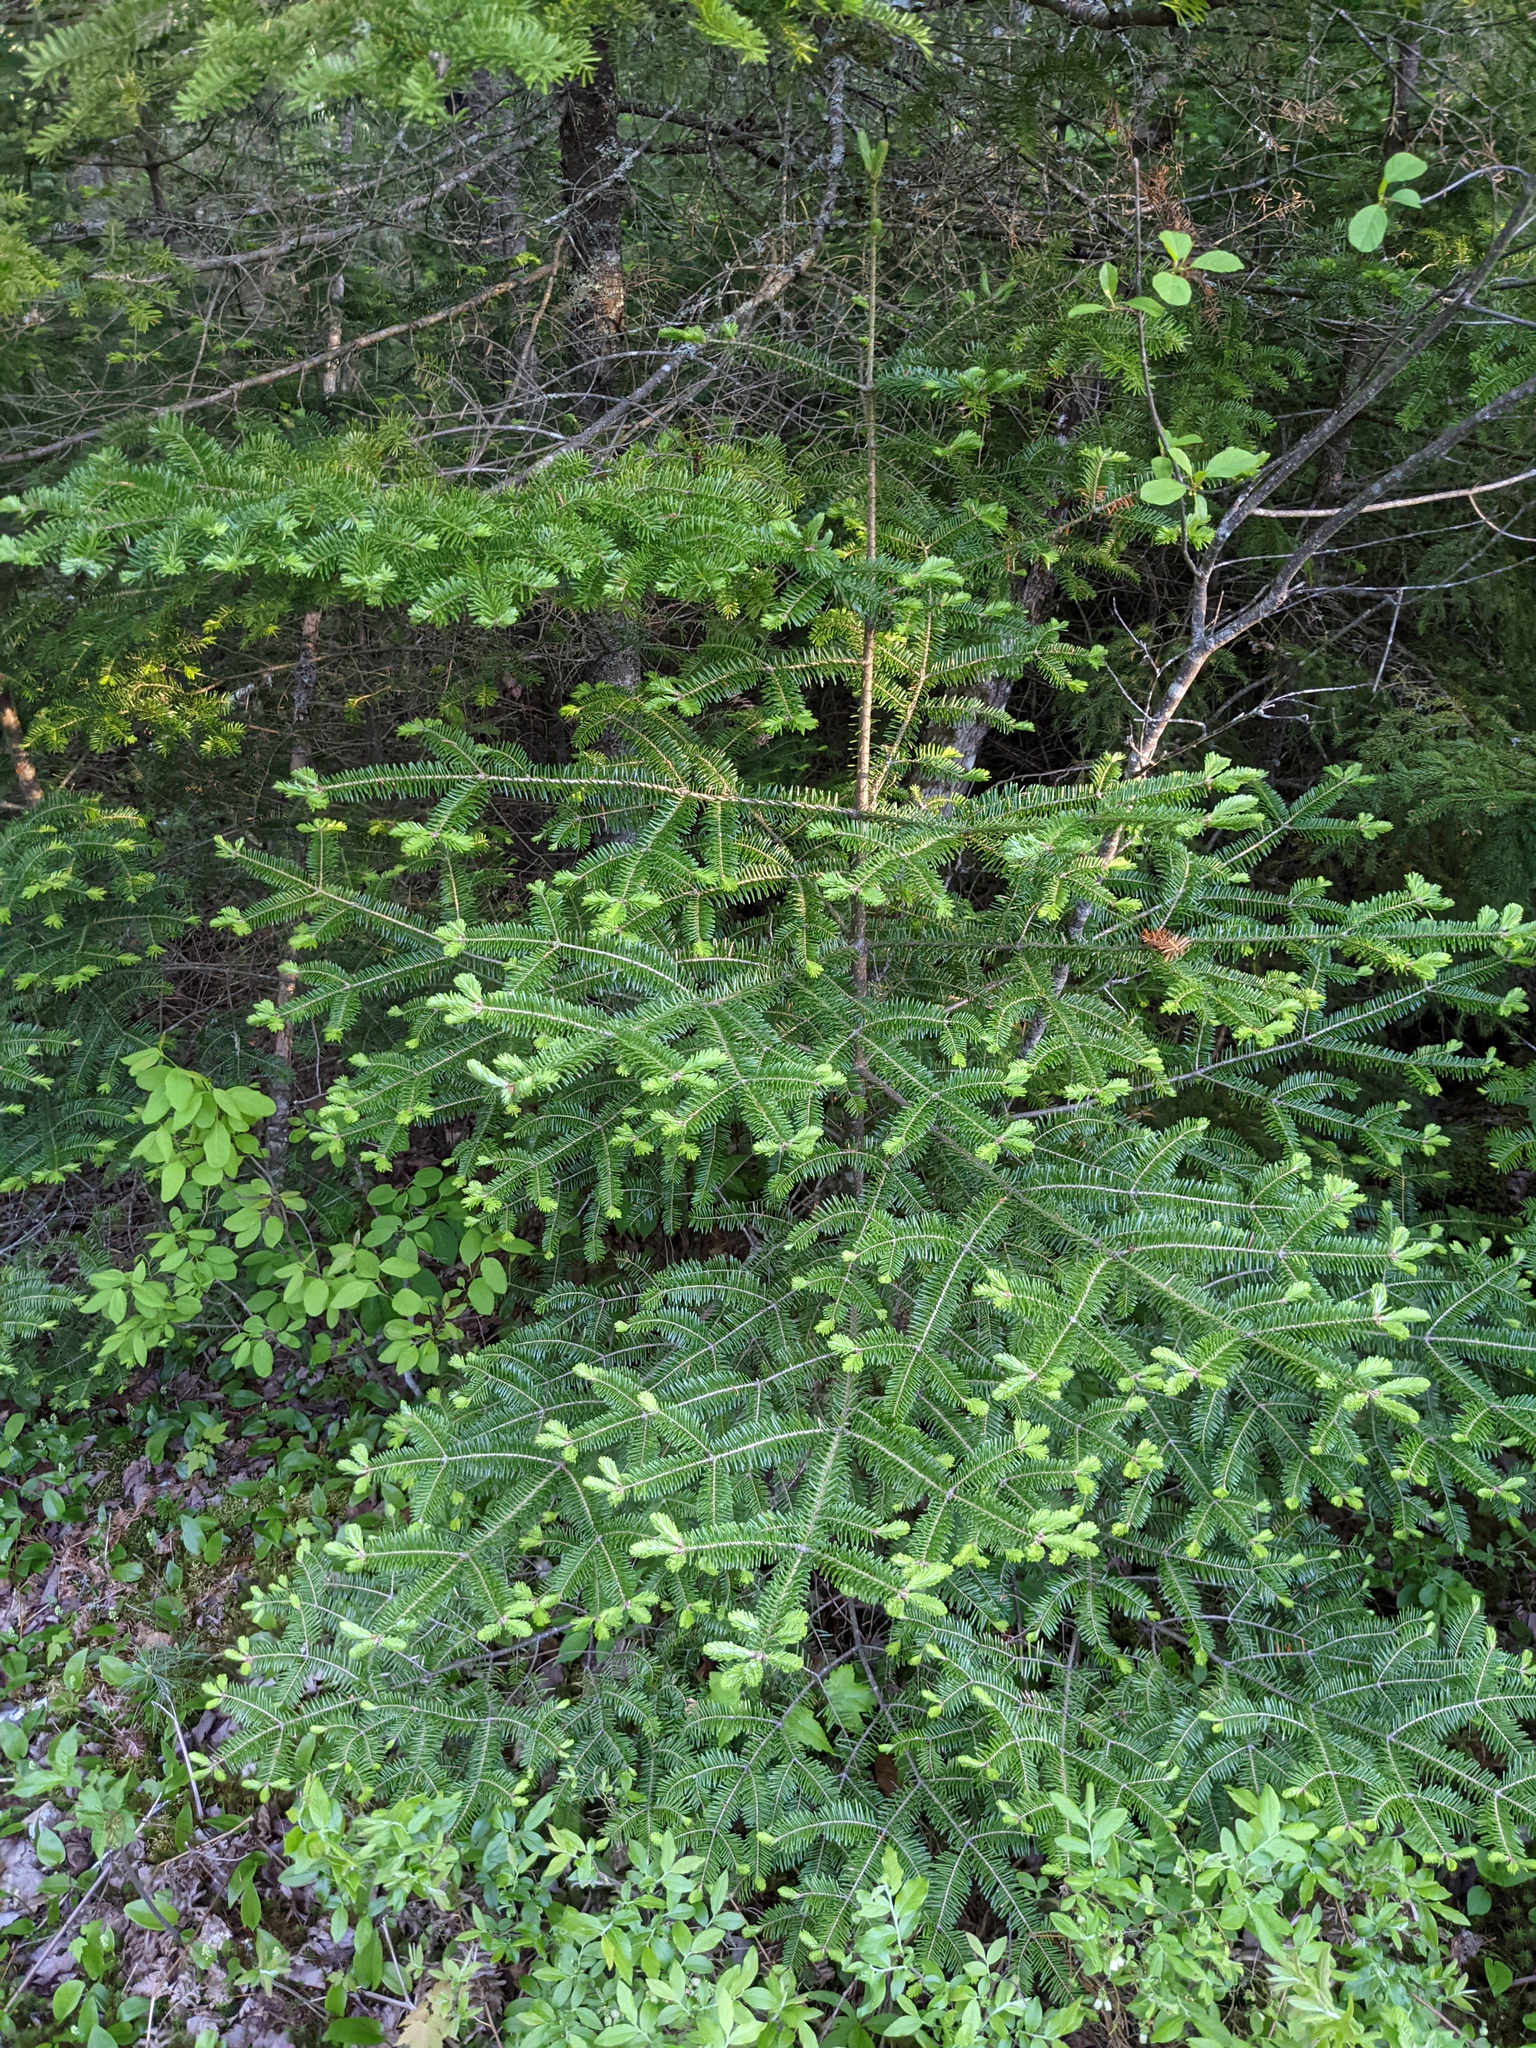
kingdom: Plantae
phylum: Tracheophyta
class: Pinopsida
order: Pinales
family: Pinaceae
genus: Abies
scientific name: Abies balsamea
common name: Balsam fir
